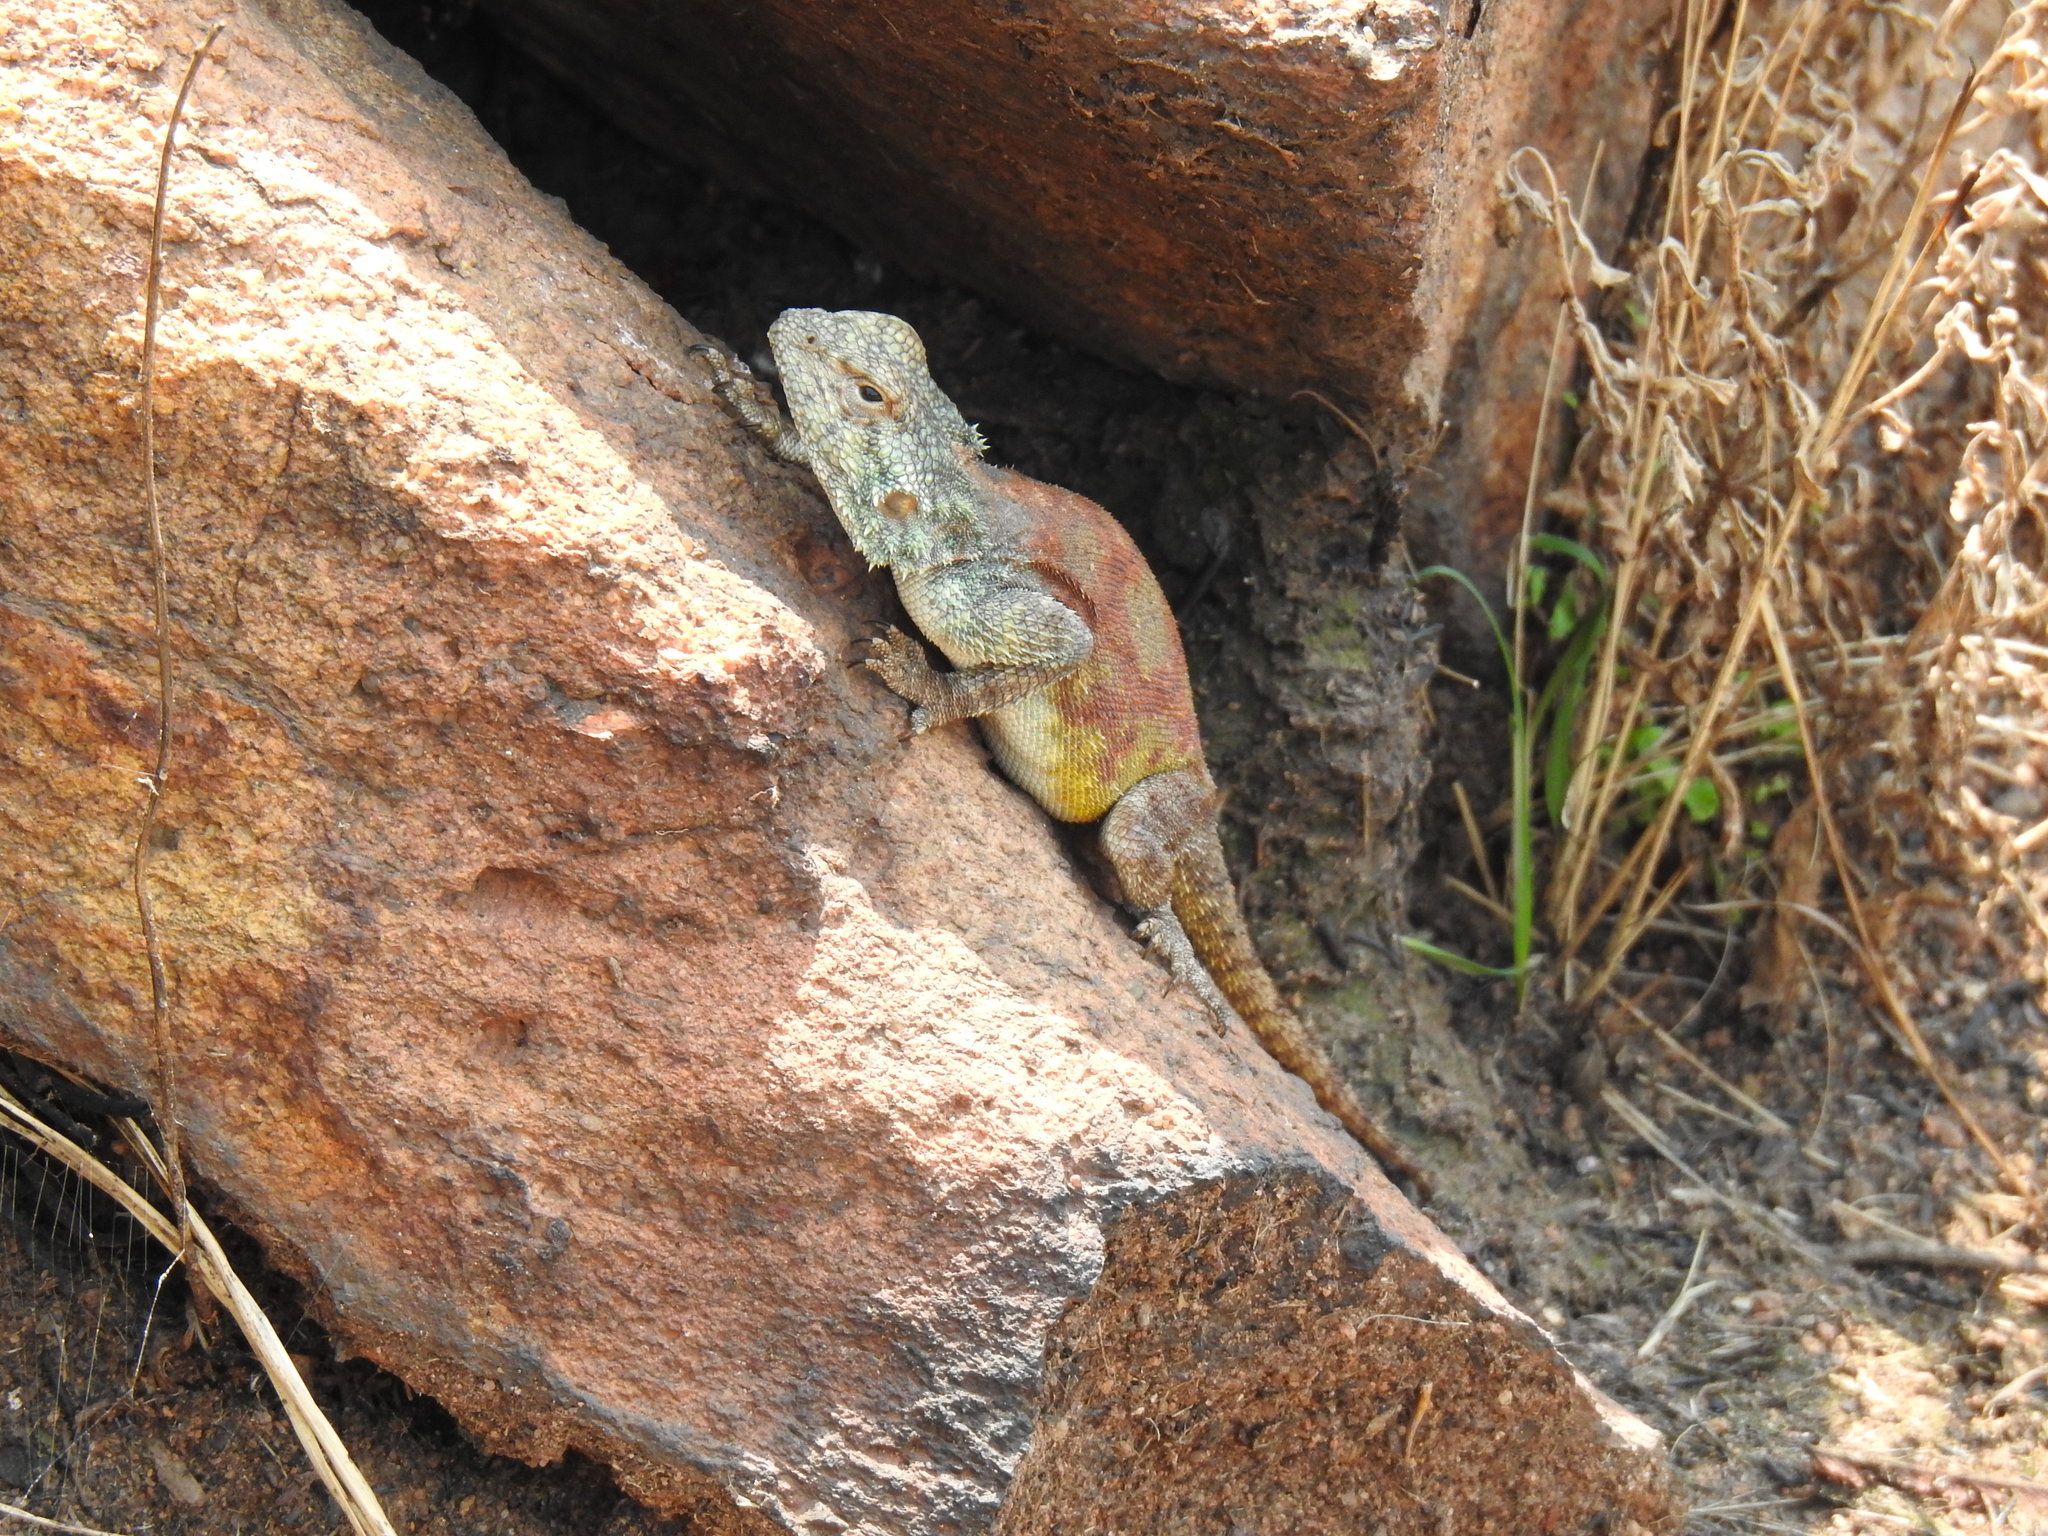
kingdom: Animalia
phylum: Chordata
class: Squamata
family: Agamidae
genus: Agama
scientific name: Agama atra
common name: Southern african rock agama
